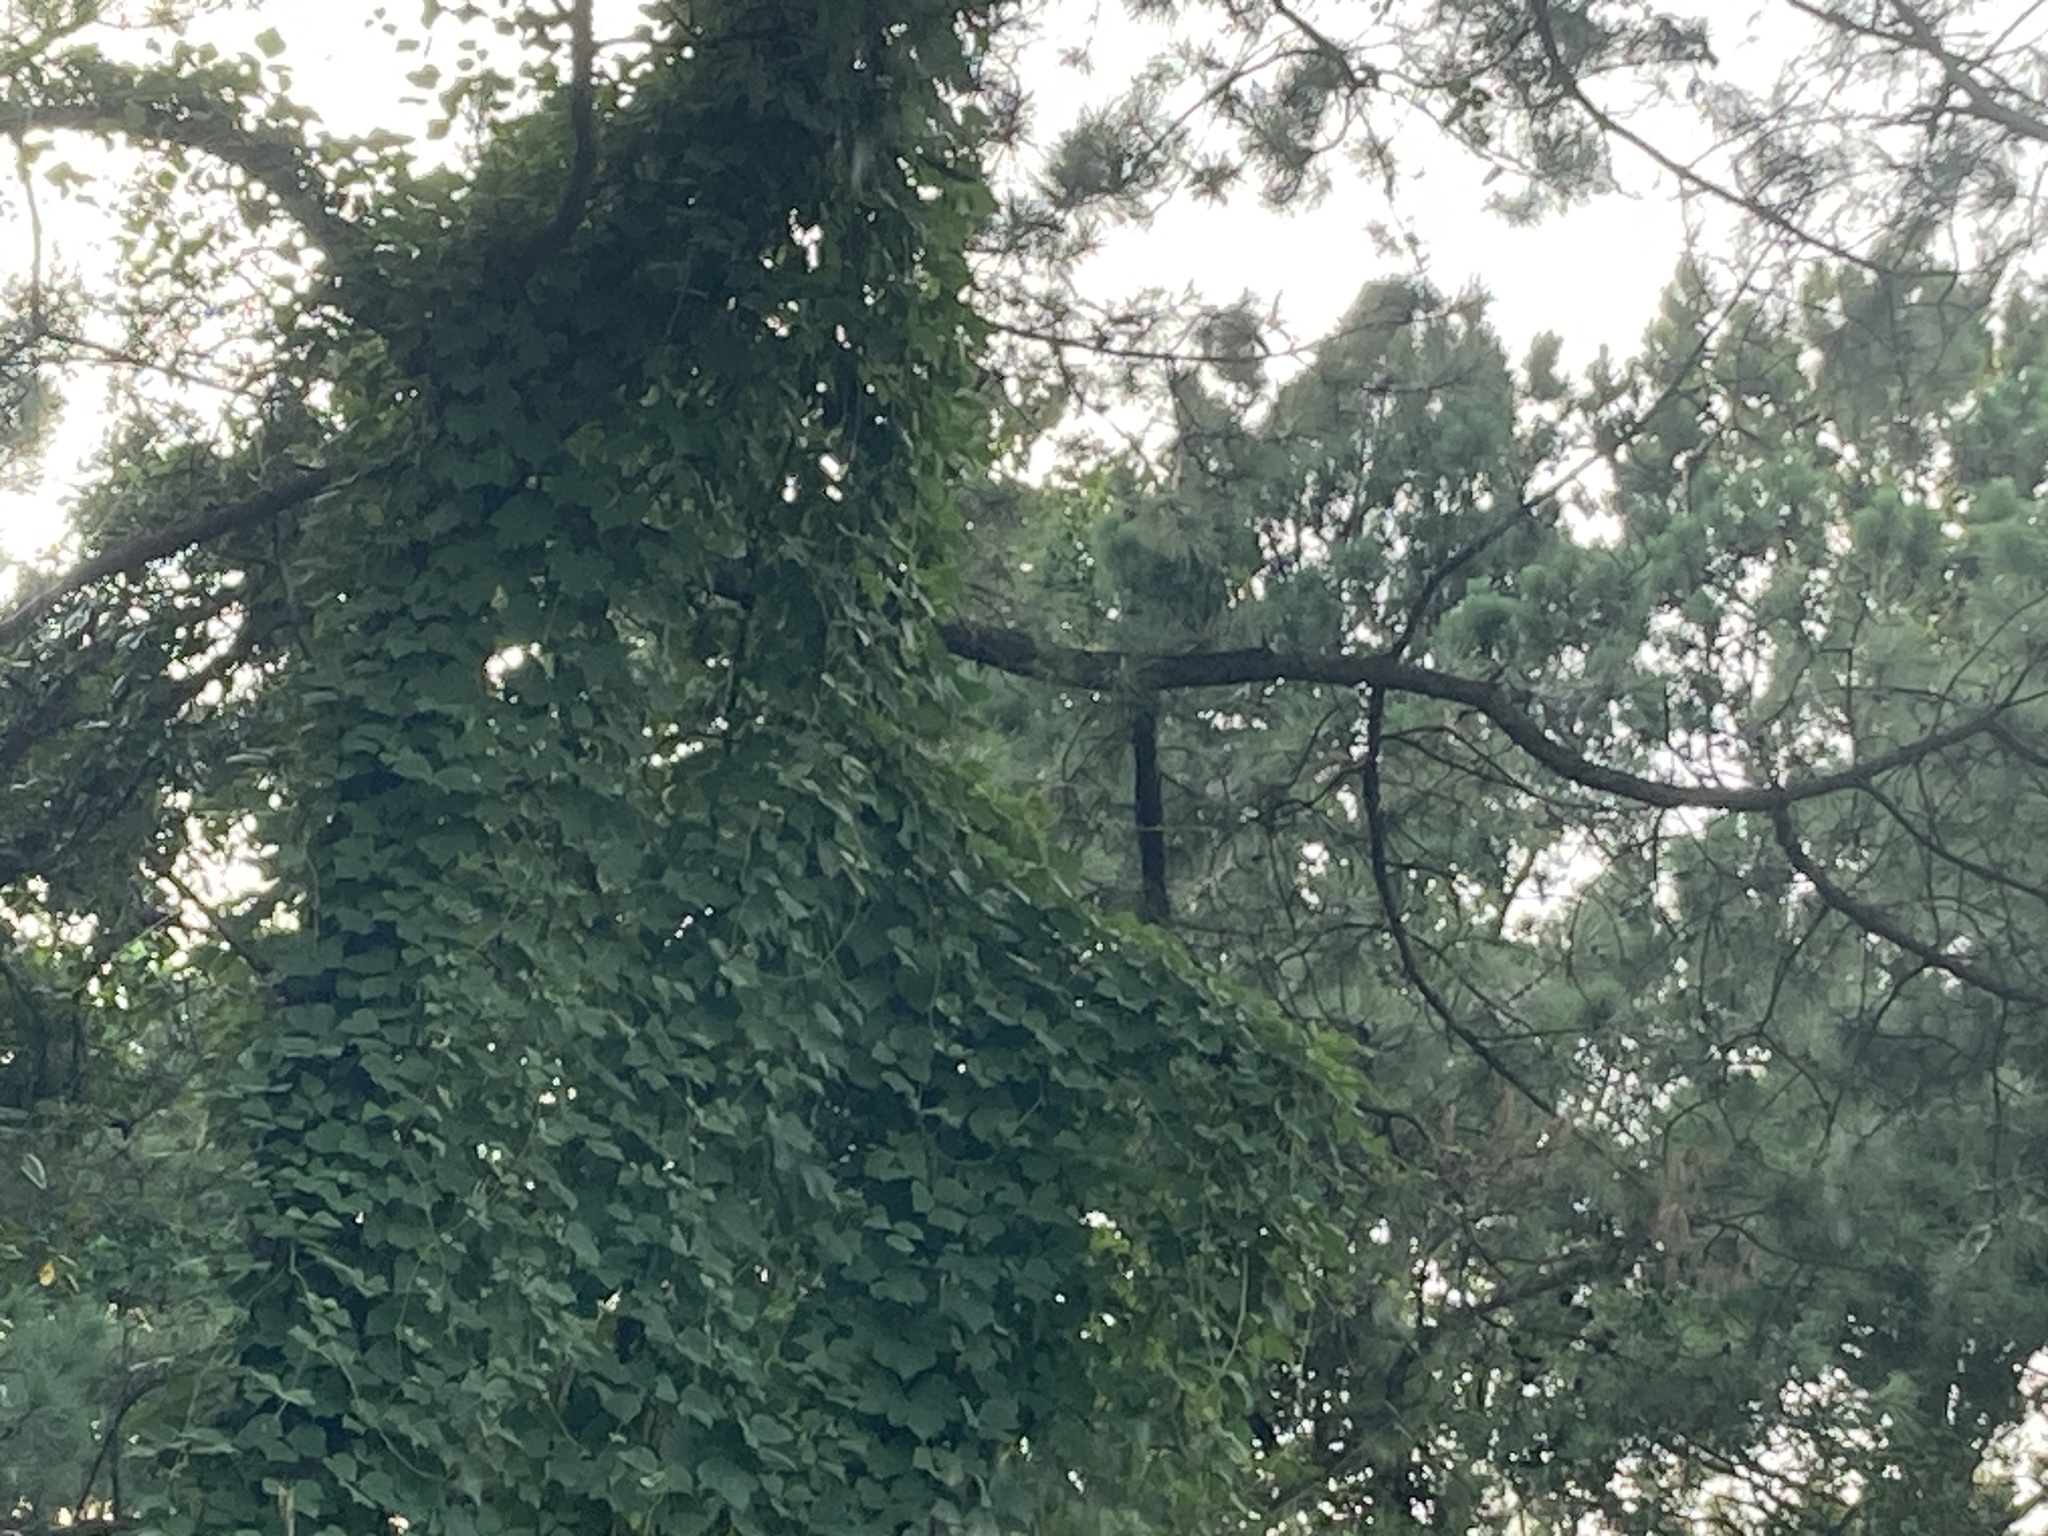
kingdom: Plantae
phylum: Tracheophyta
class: Magnoliopsida
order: Fabales
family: Fabaceae
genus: Pueraria
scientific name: Pueraria montana
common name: Kudzu
